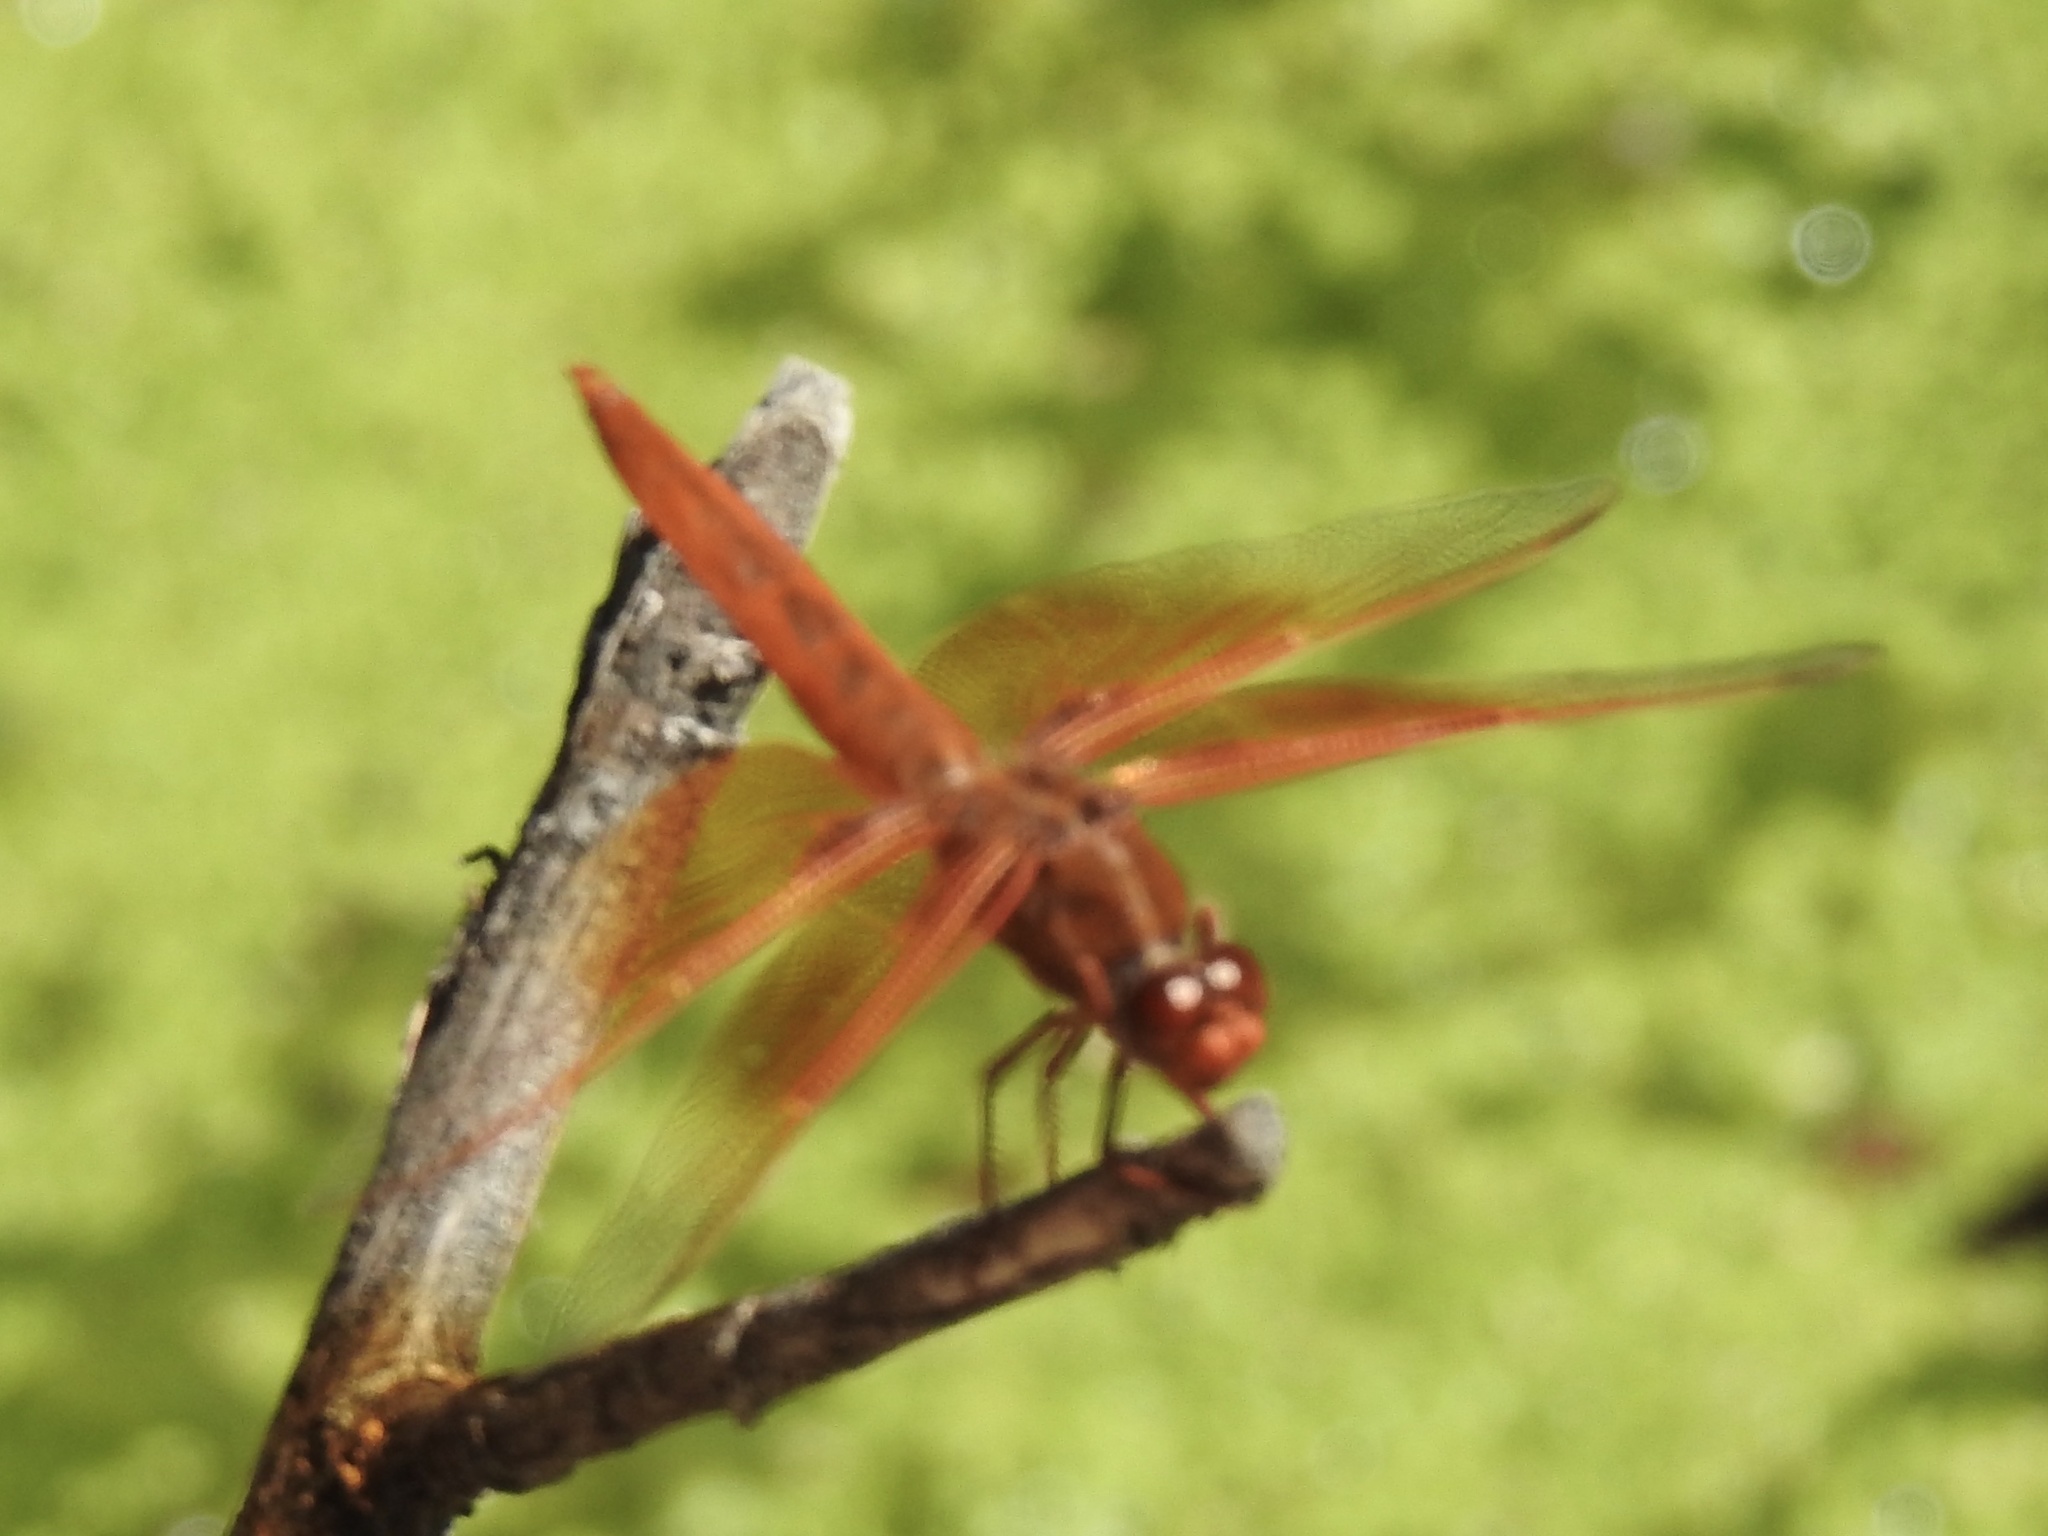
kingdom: Animalia
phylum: Arthropoda
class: Insecta
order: Odonata
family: Libellulidae
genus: Libellula
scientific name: Libellula saturata
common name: Flame skimmer
